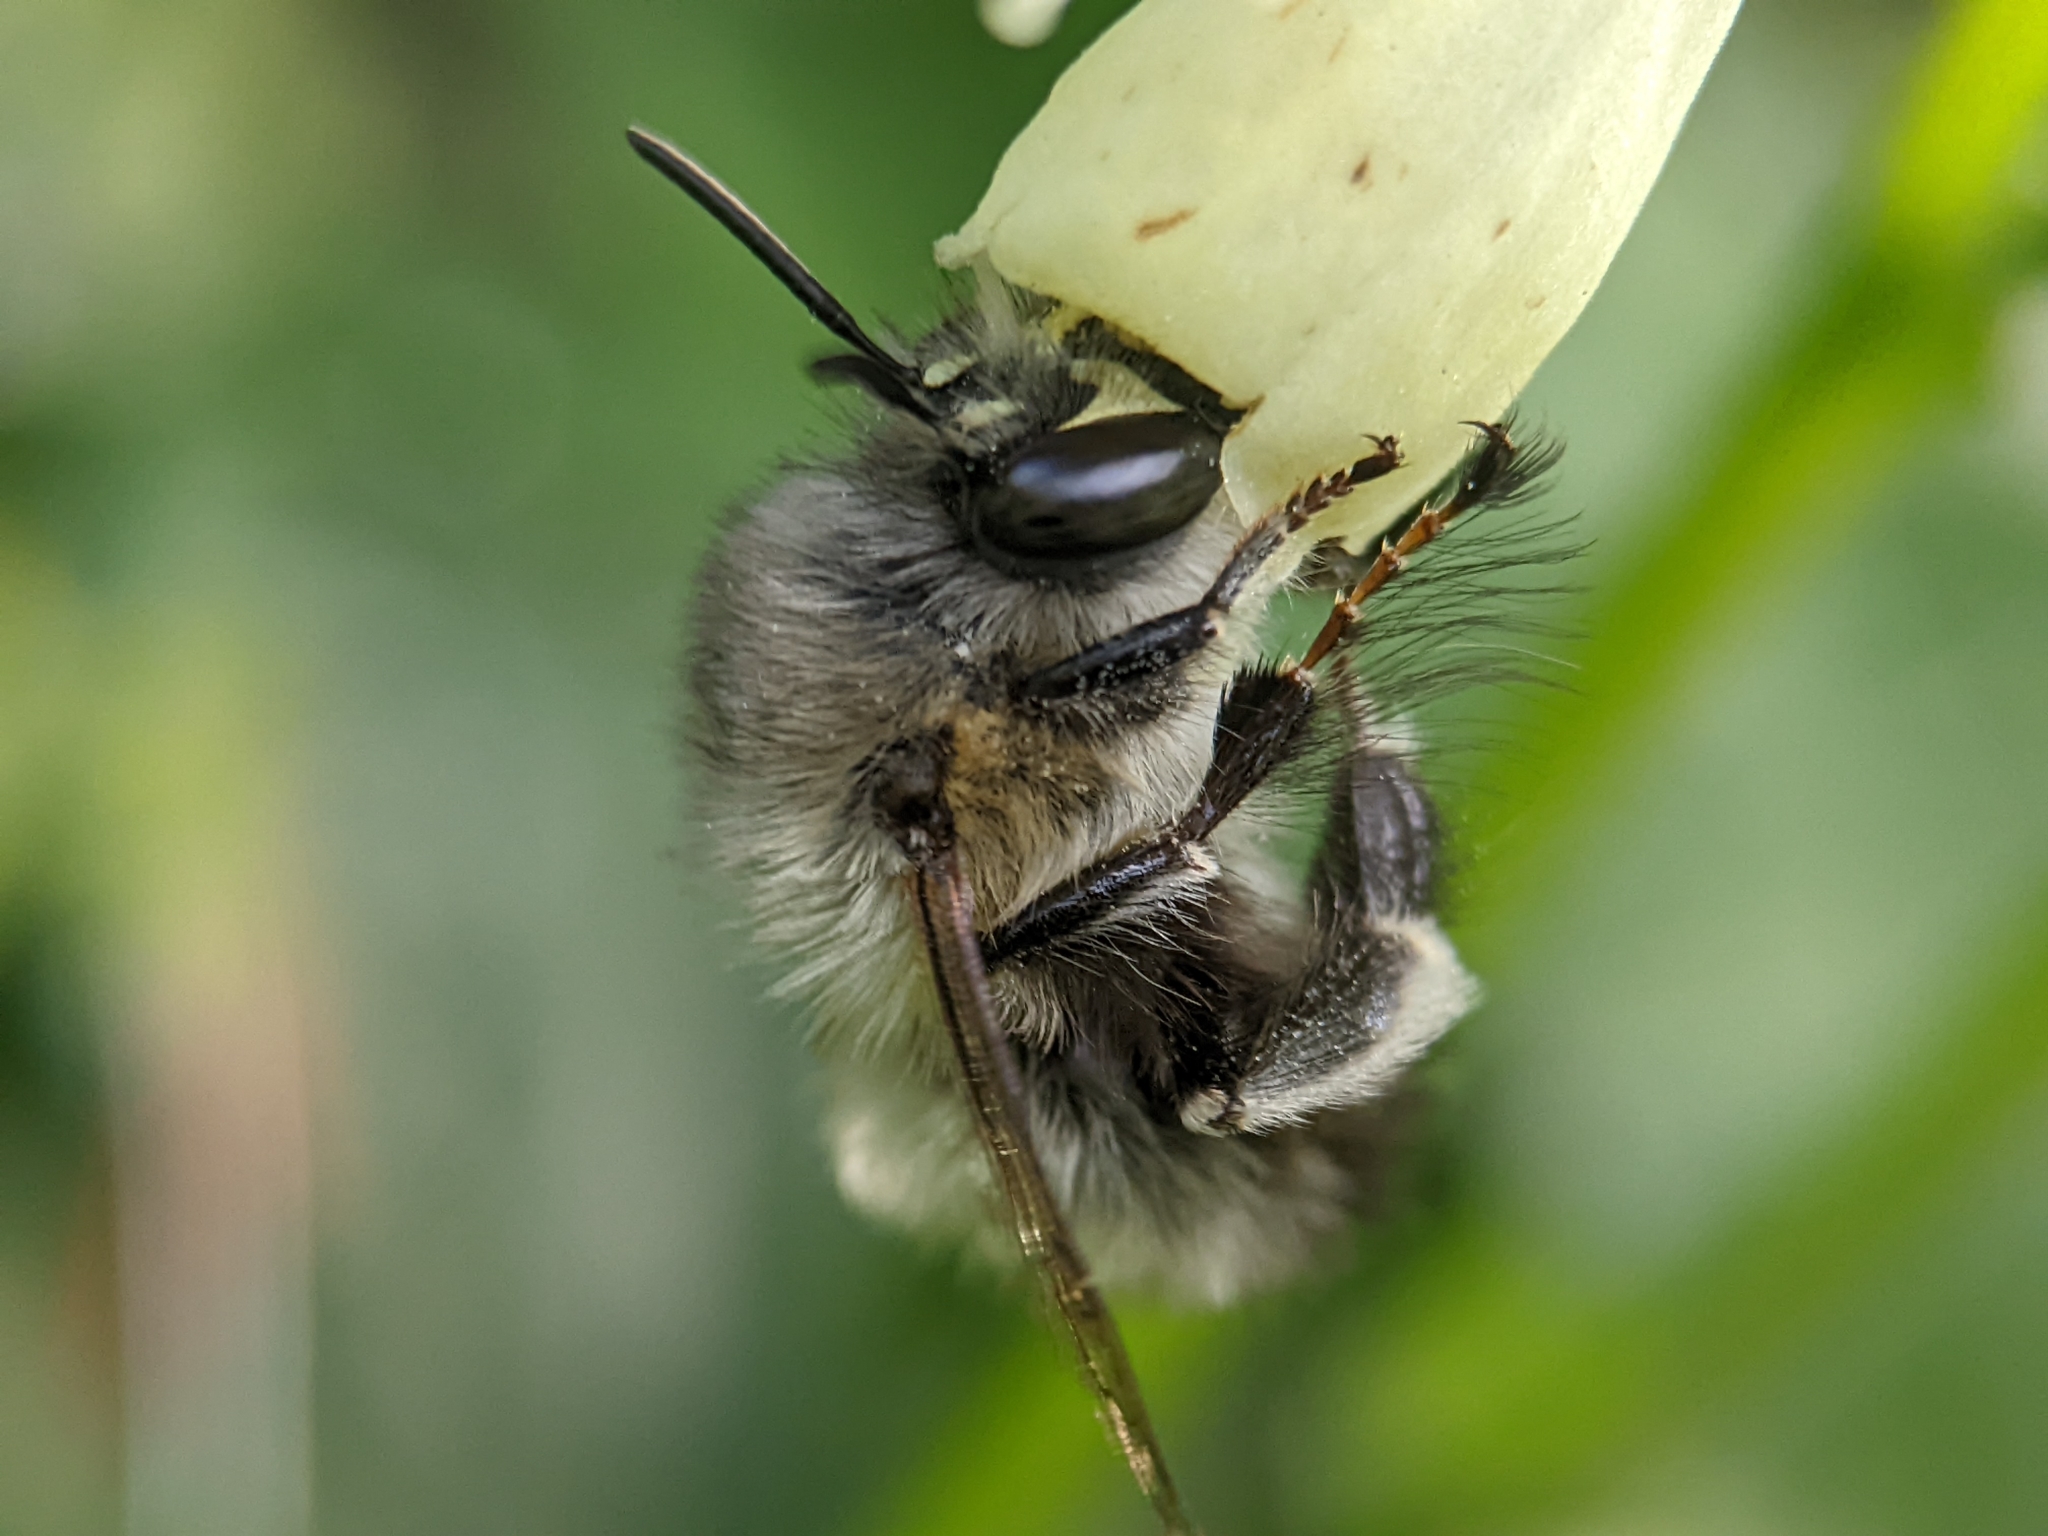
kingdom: Animalia
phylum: Arthropoda
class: Insecta
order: Hymenoptera
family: Apidae
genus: Anthophora
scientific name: Anthophora plumipes
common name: Hairy-footed flower bee
